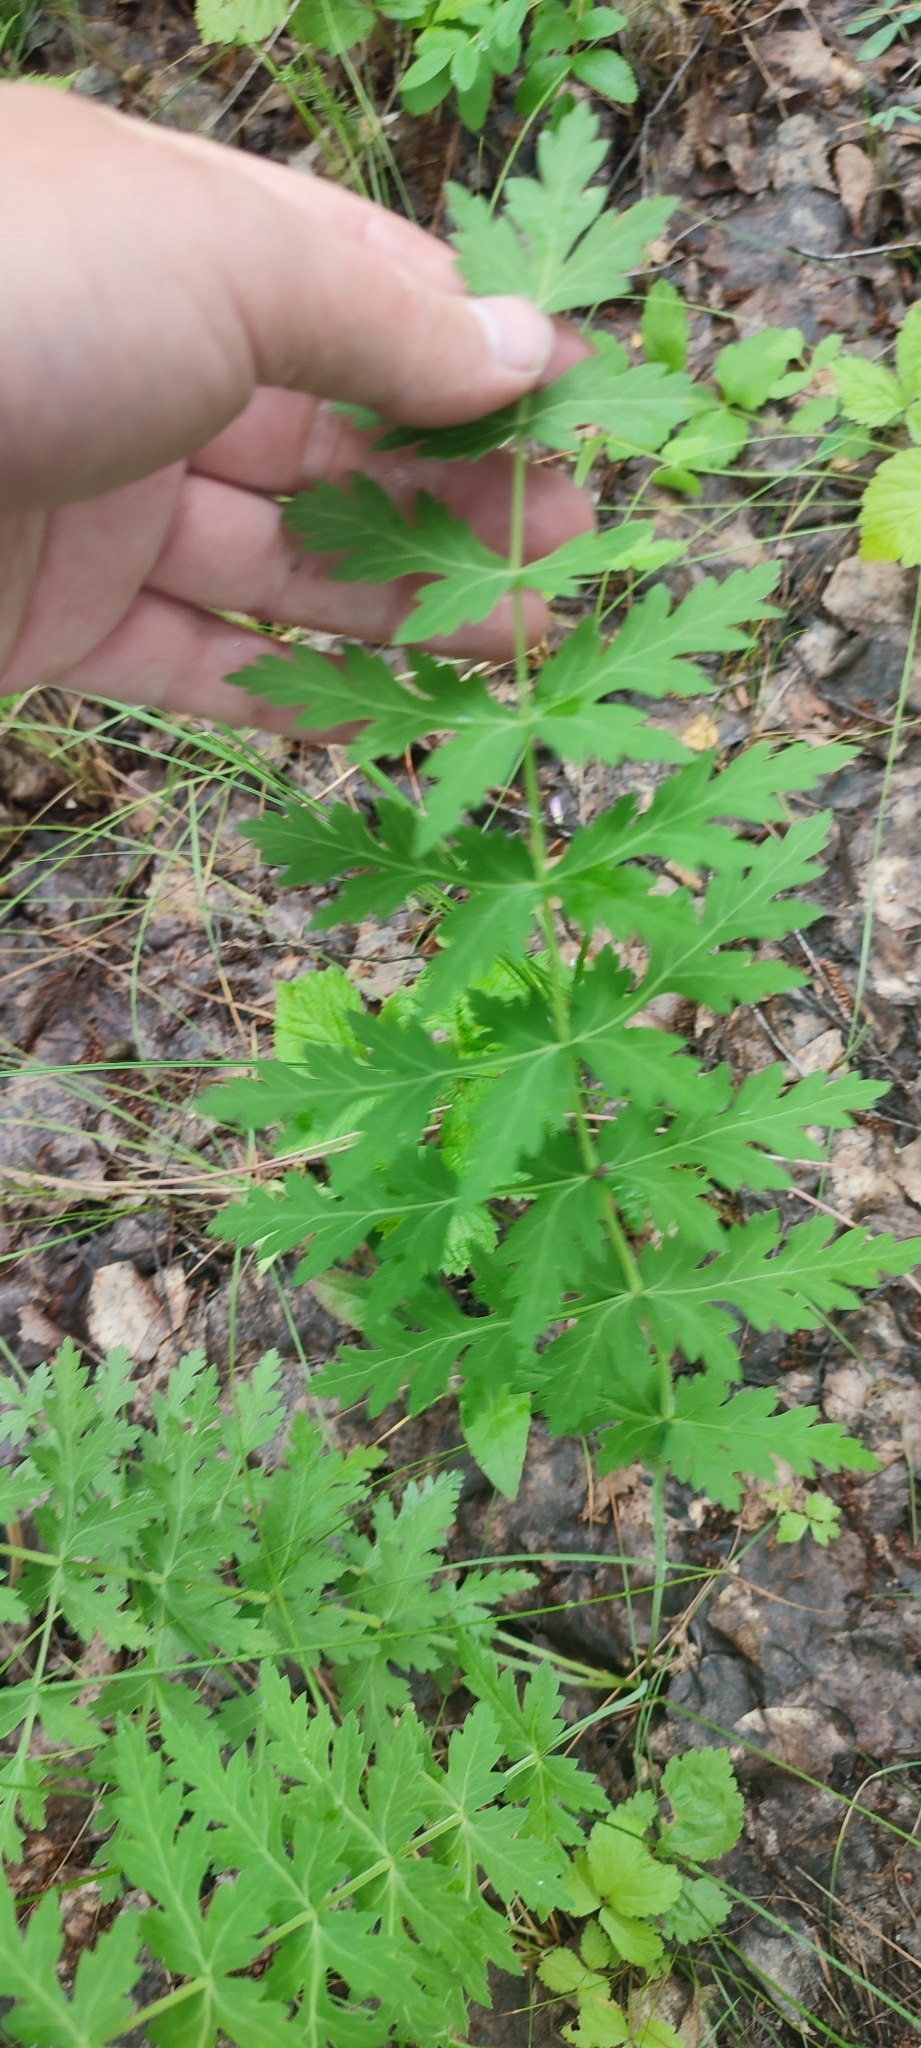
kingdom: Plantae
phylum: Tracheophyta
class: Magnoliopsida
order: Apiales
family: Apiaceae
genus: Seseli
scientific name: Seseli libanotis
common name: Mooncarrot
